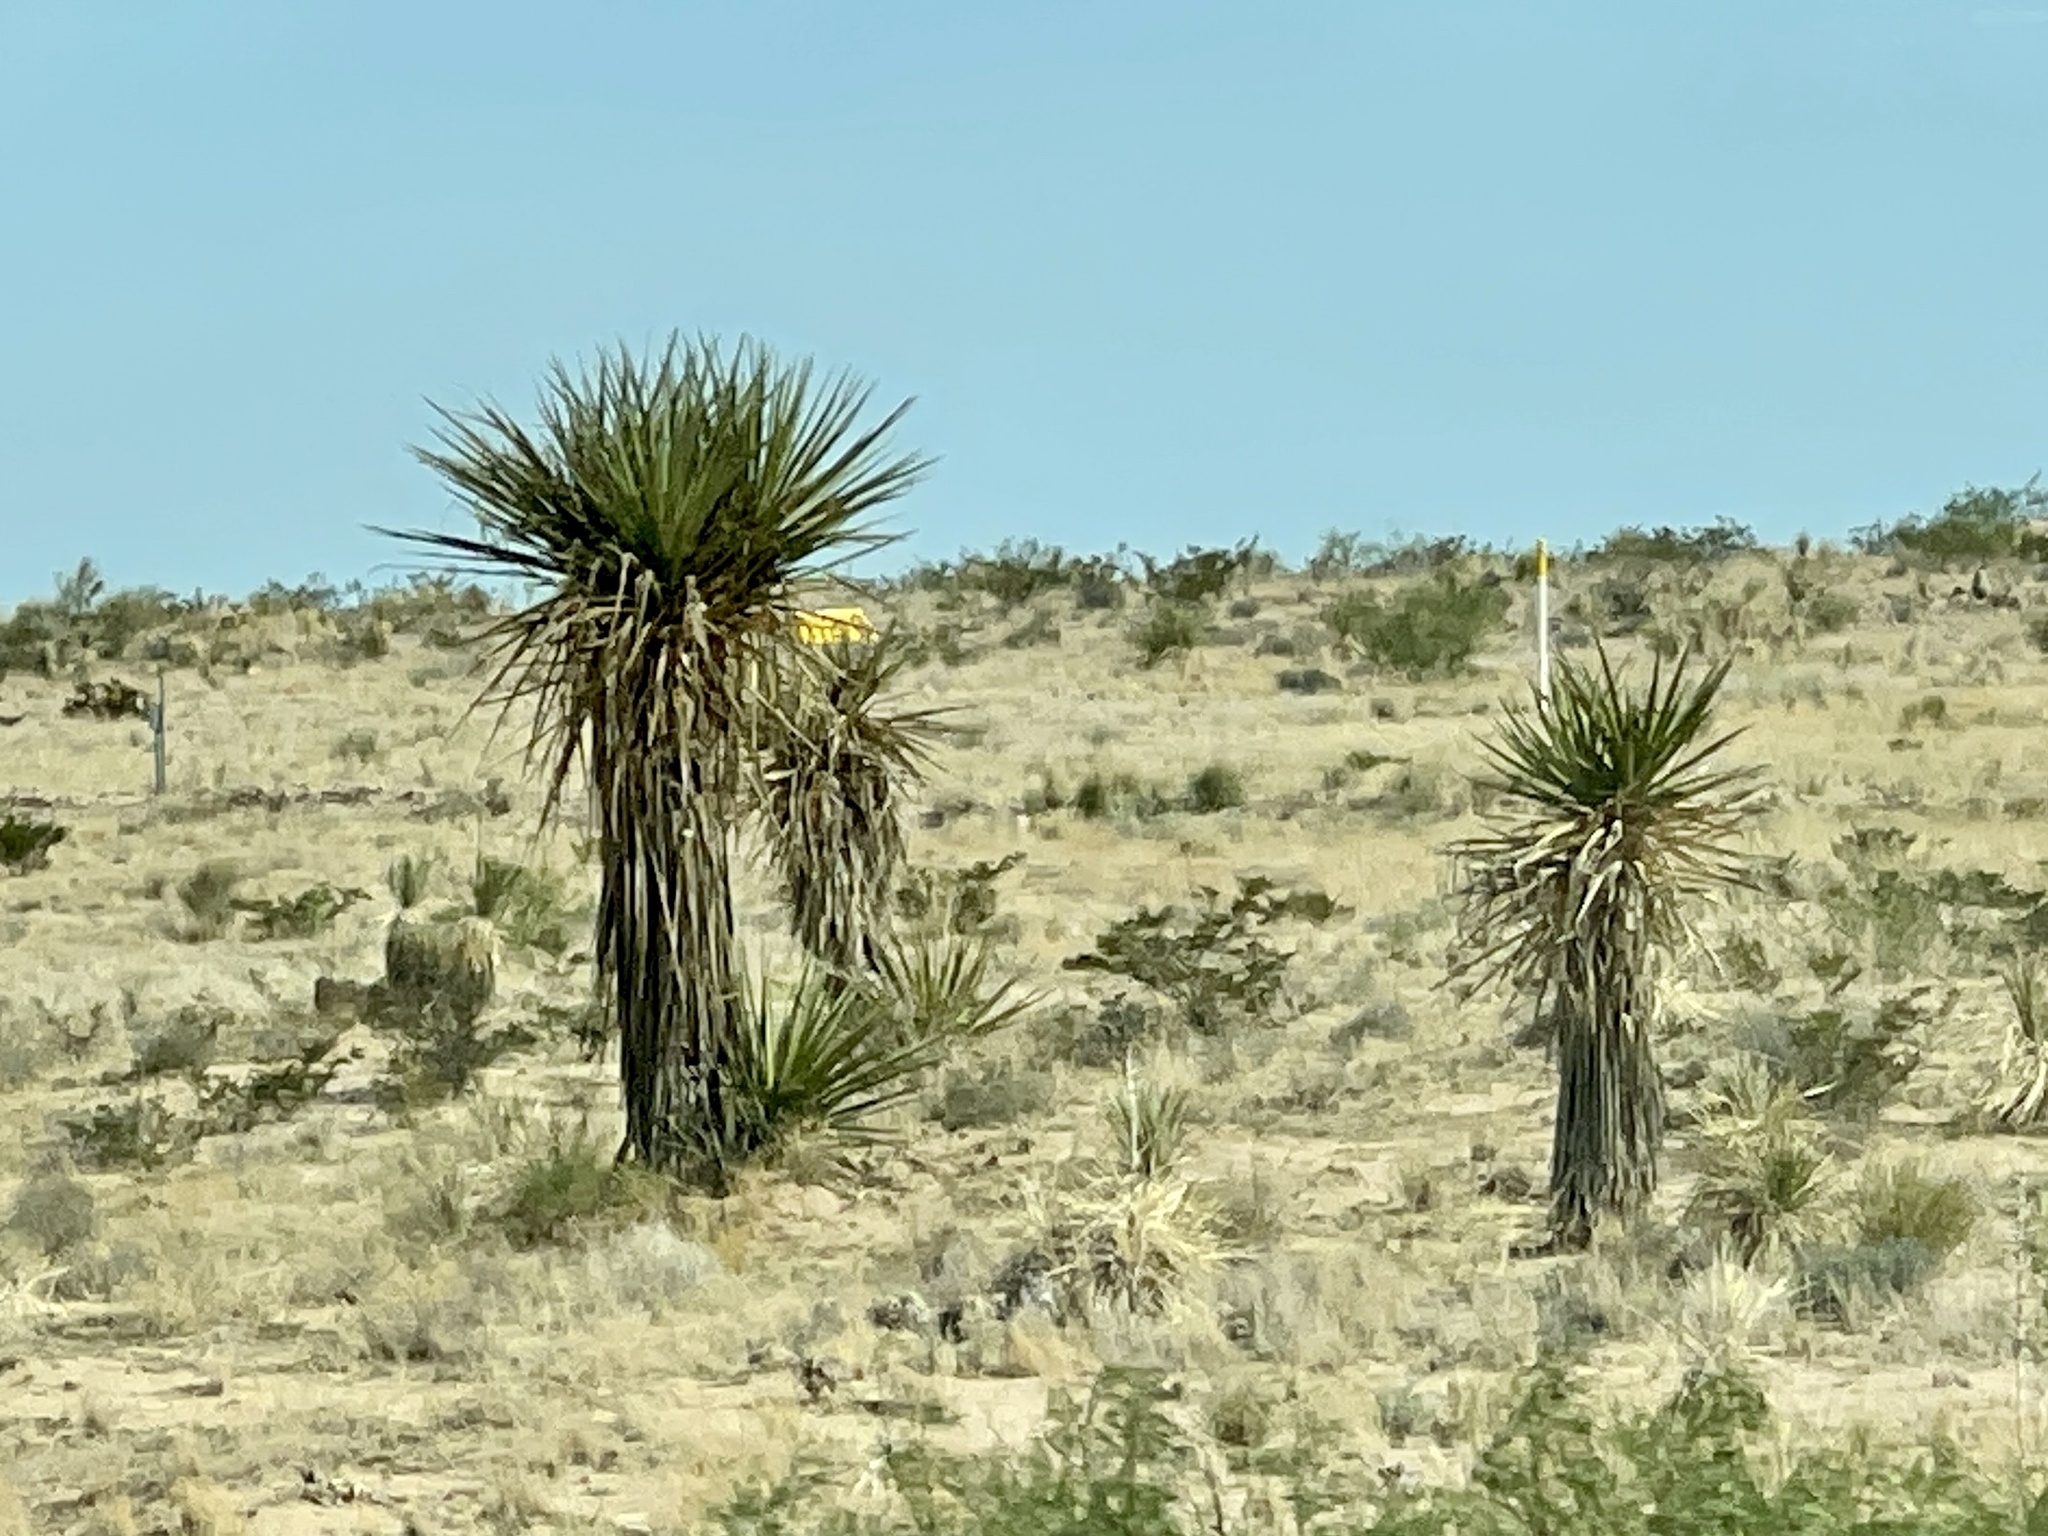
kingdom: Plantae
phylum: Tracheophyta
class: Liliopsida
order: Asparagales
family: Asparagaceae
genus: Yucca
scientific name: Yucca treculiana
